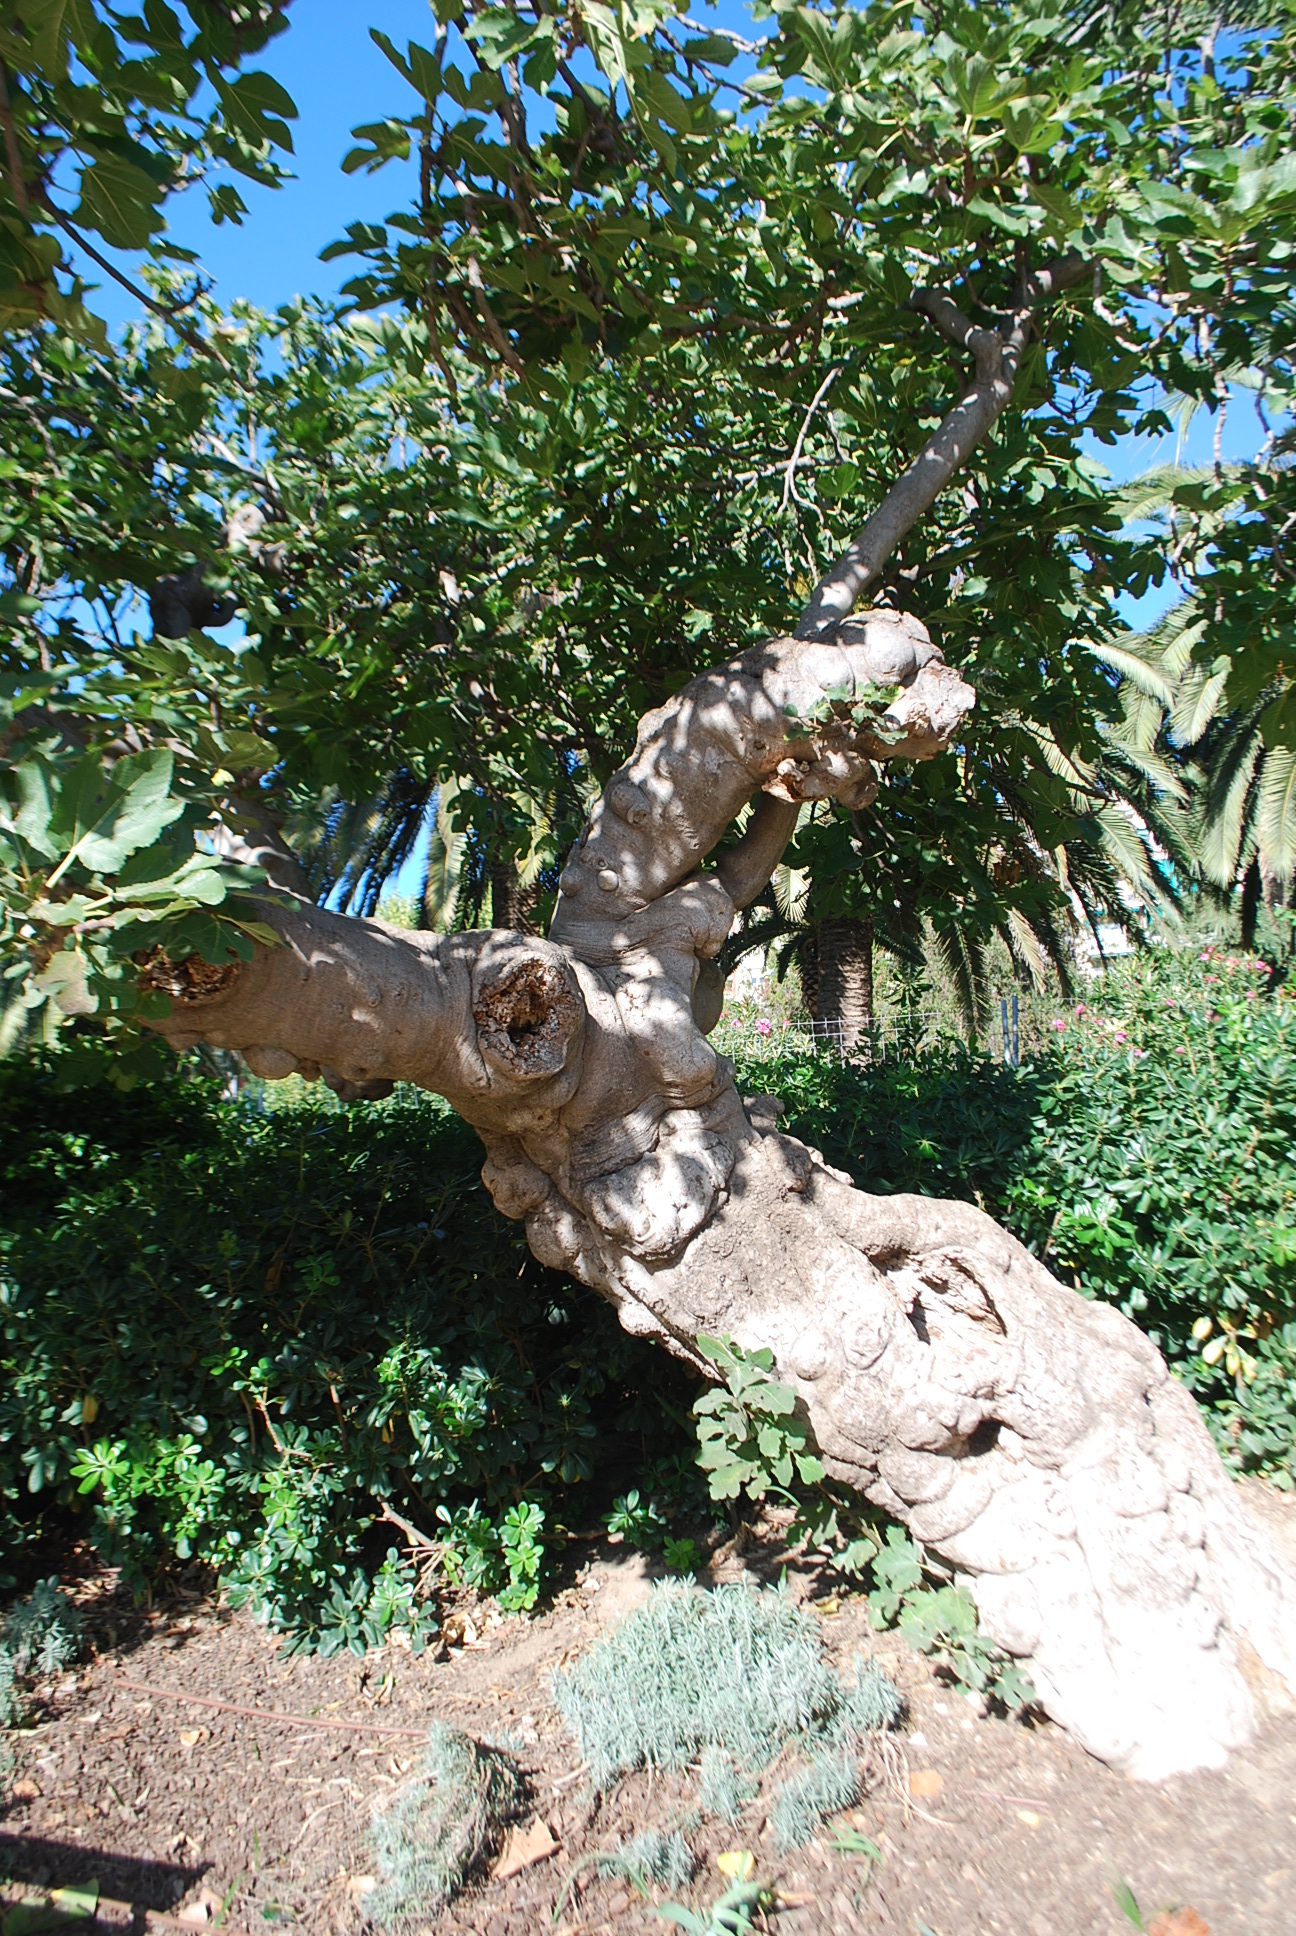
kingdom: Plantae
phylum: Tracheophyta
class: Magnoliopsida
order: Rosales
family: Moraceae
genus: Ficus
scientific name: Ficus carica
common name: Fig
